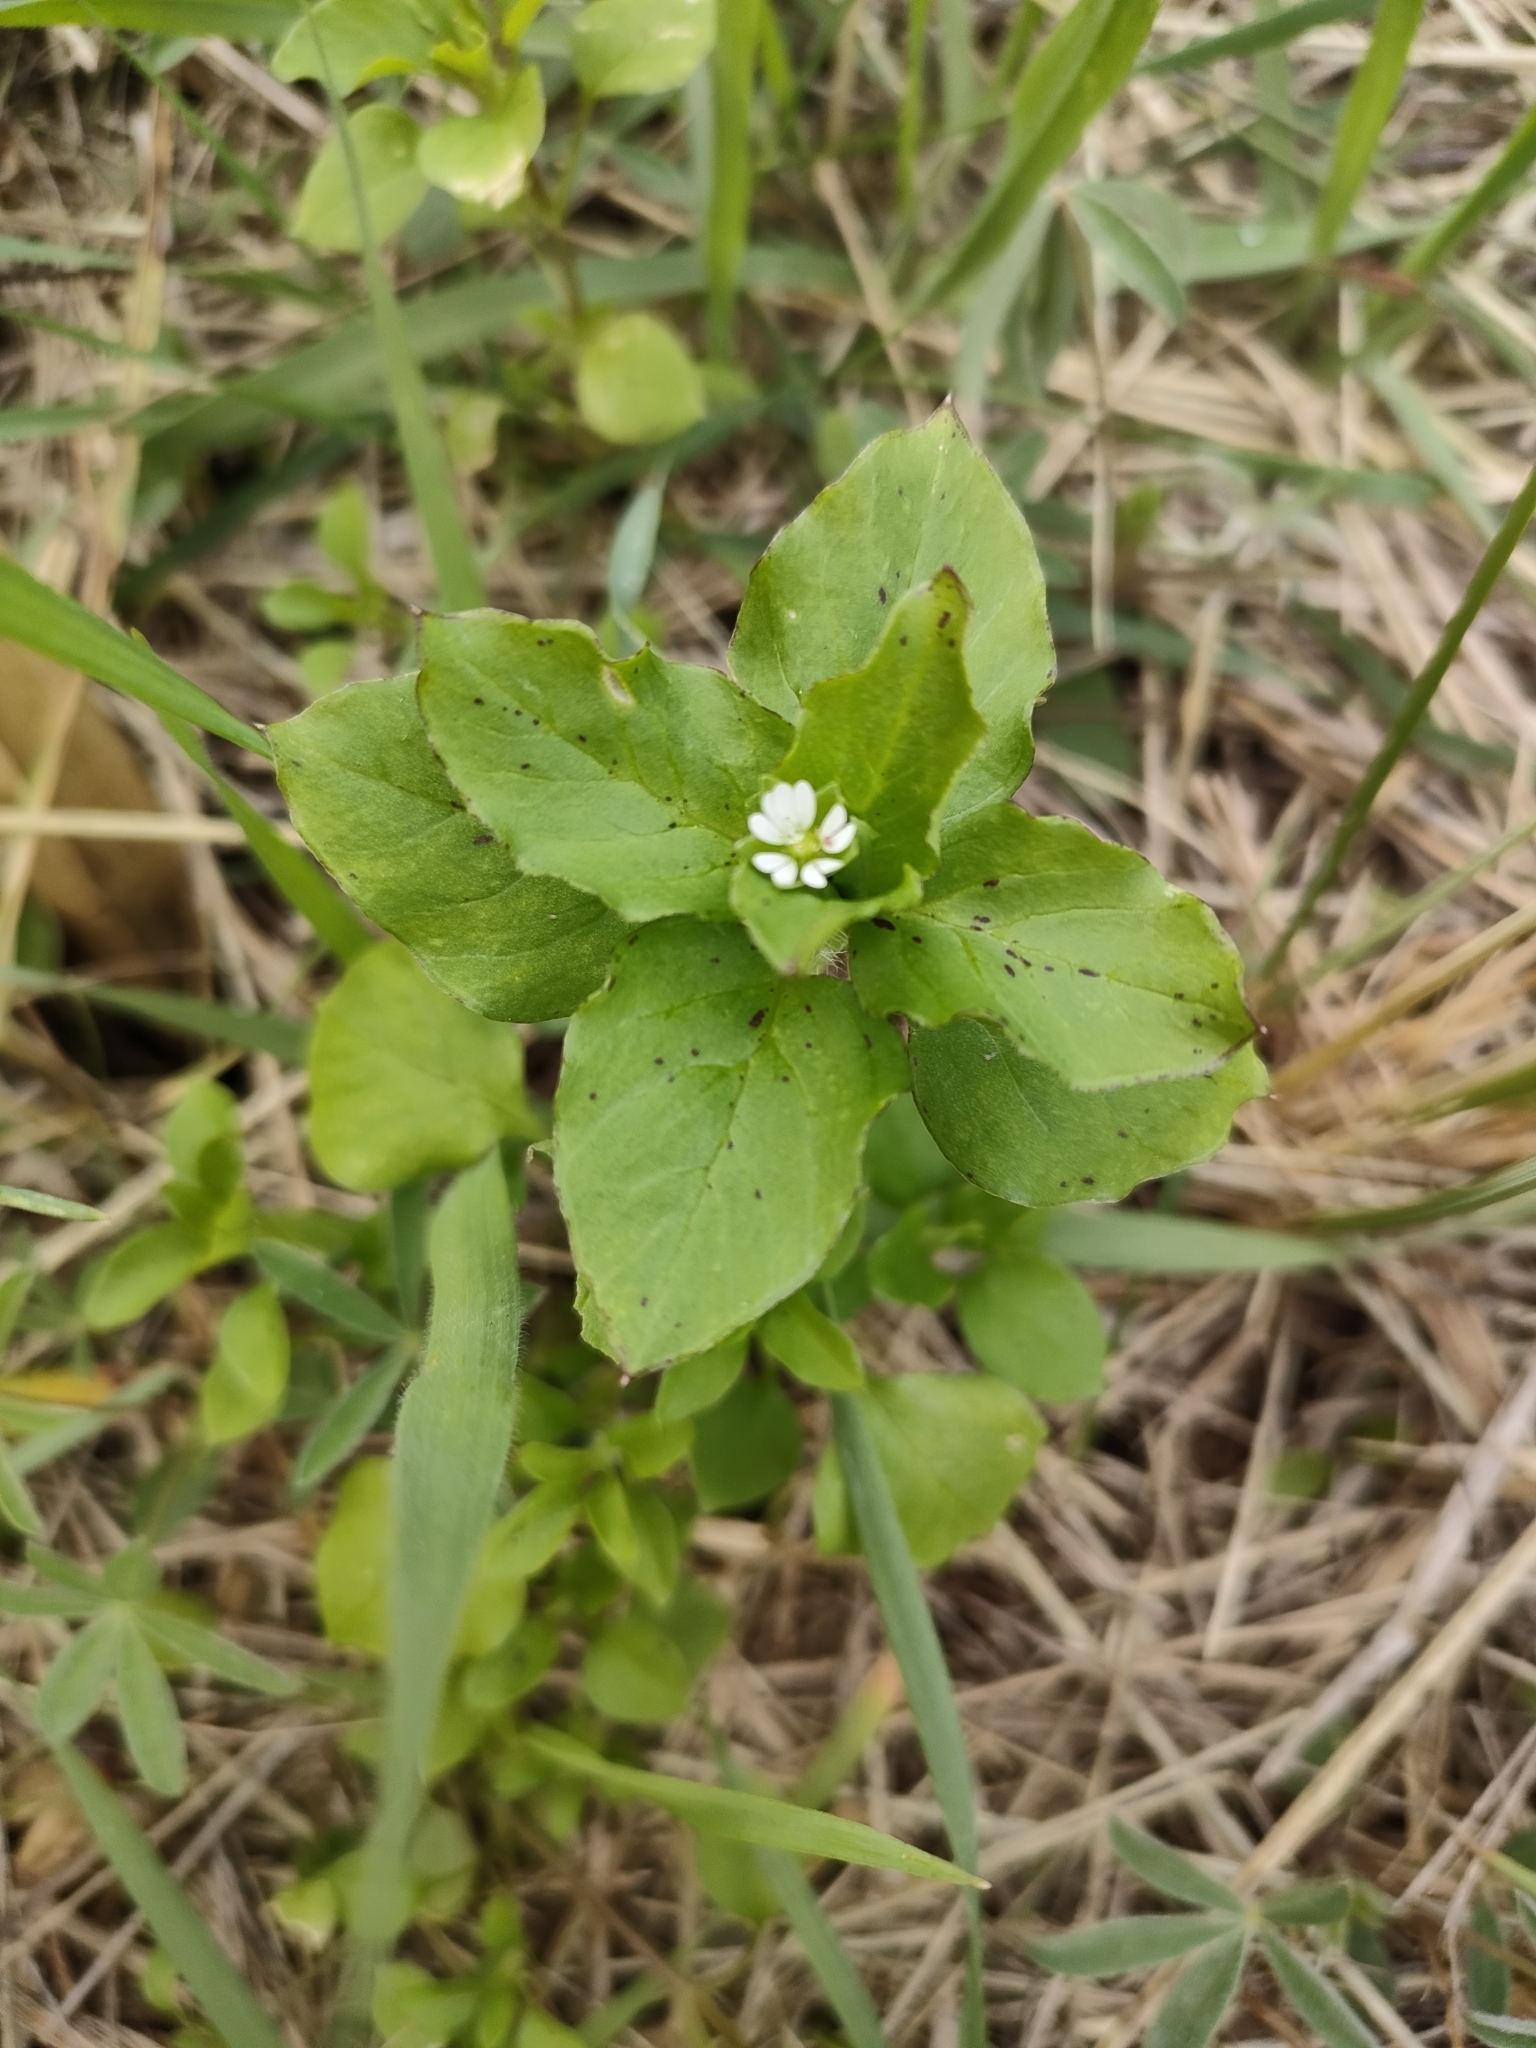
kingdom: Plantae
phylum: Tracheophyta
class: Magnoliopsida
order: Caryophyllales
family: Caryophyllaceae
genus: Stellaria
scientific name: Stellaria media
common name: Common chickweed
